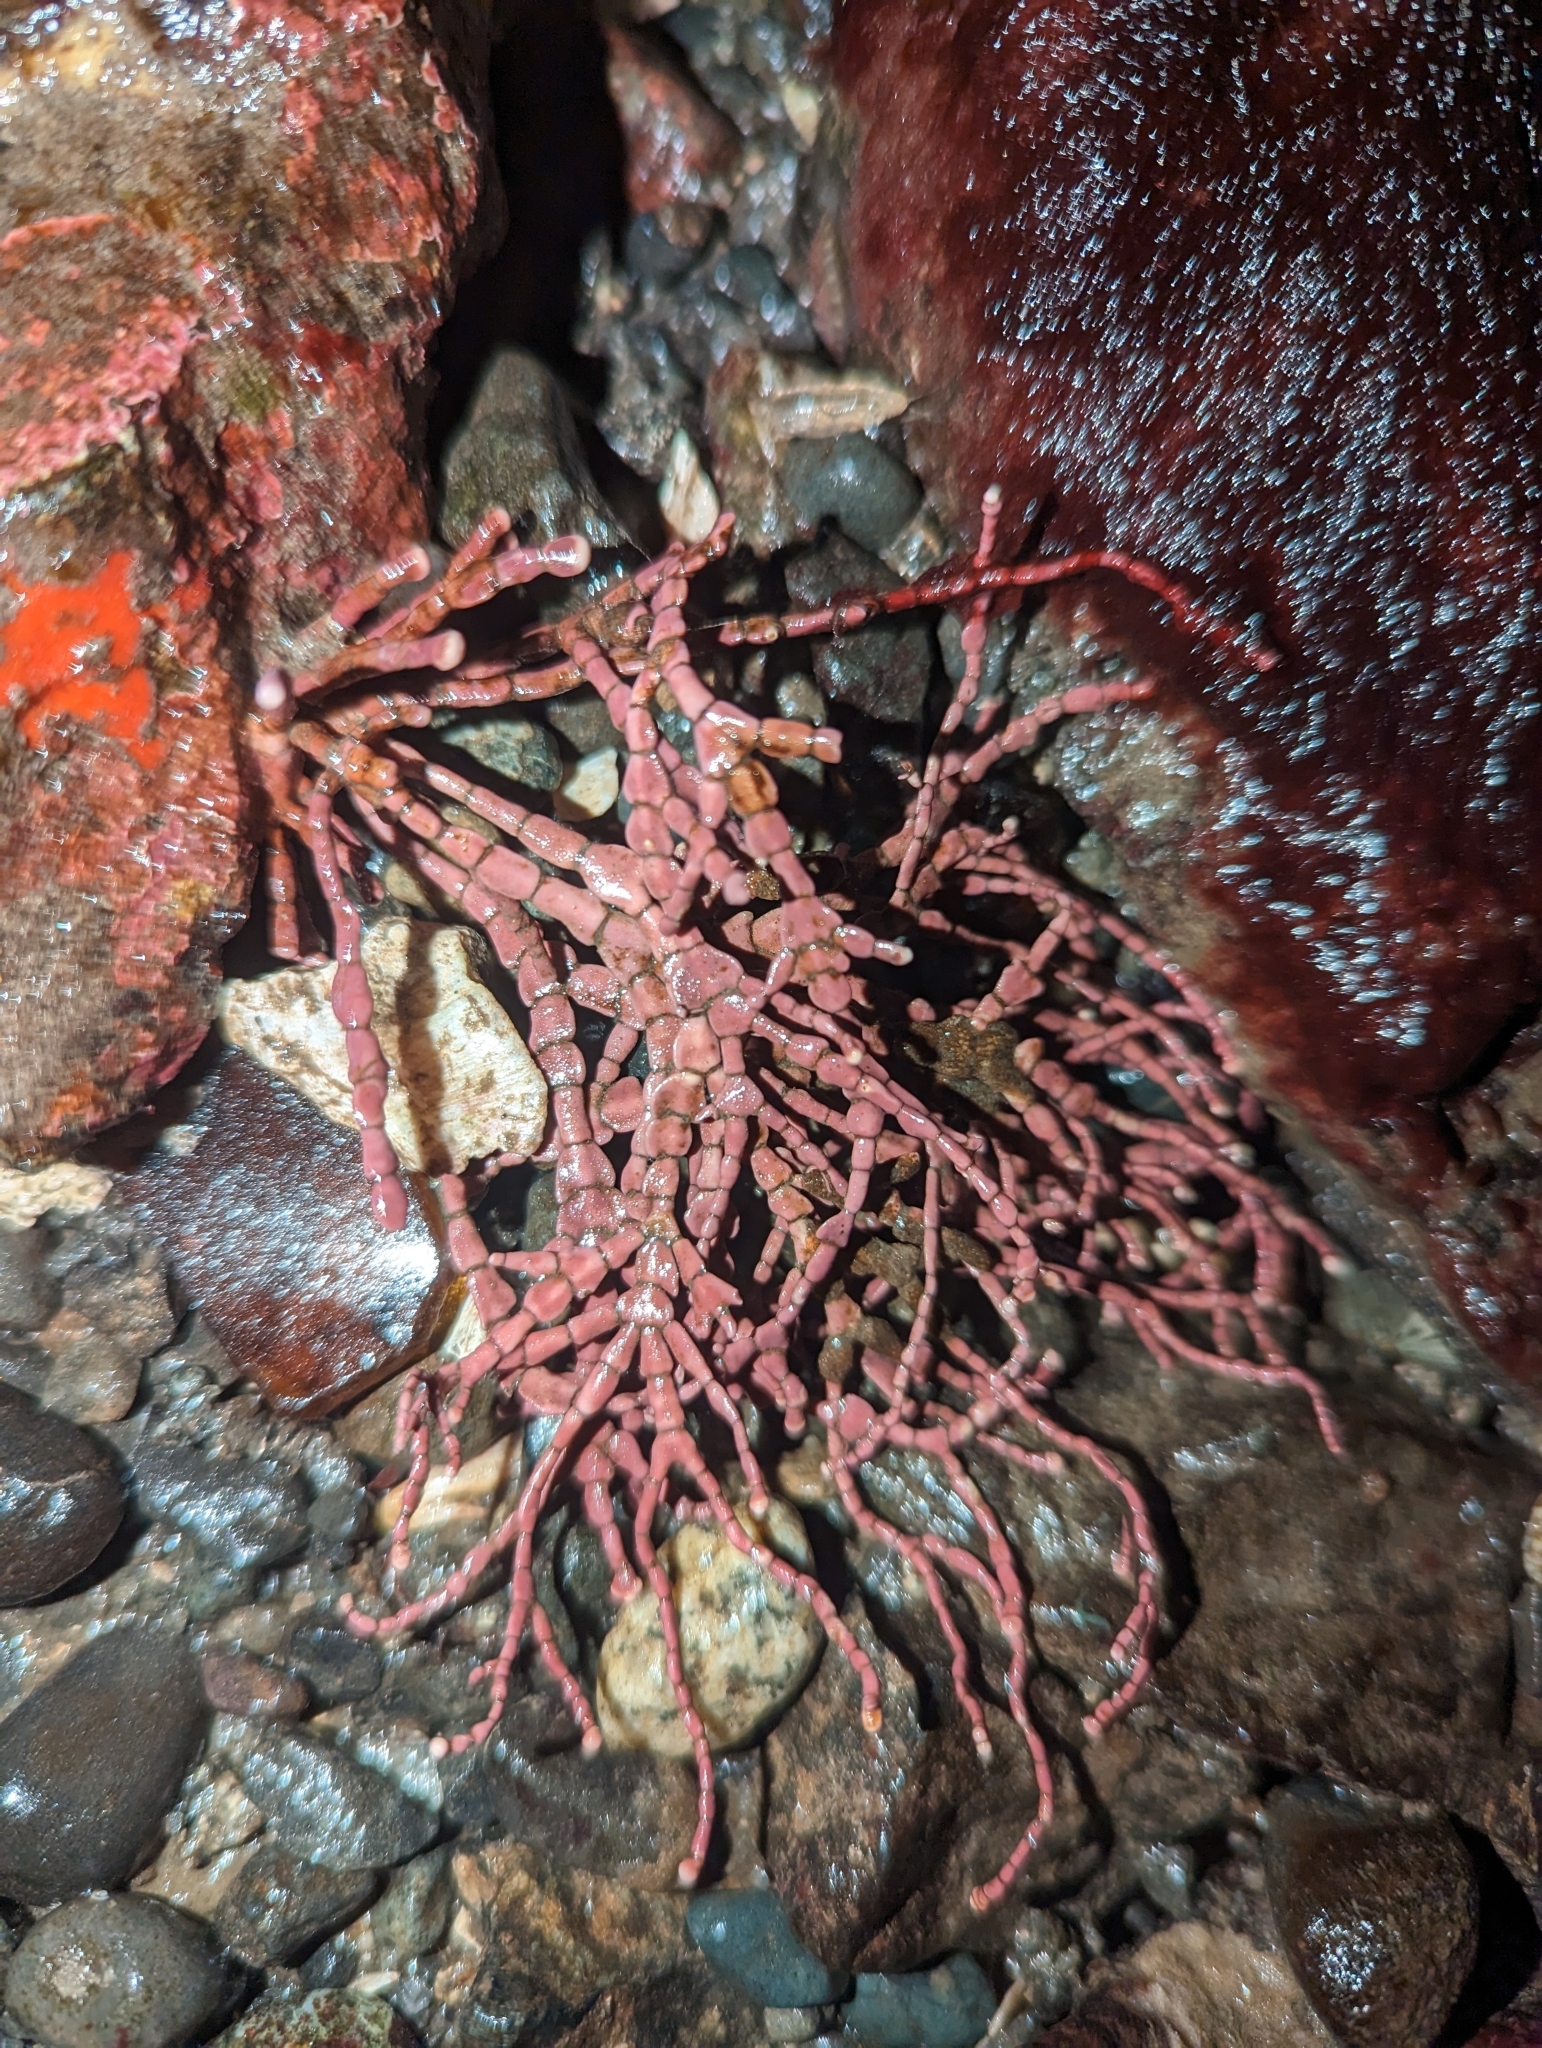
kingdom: Plantae
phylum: Rhodophyta
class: Florideophyceae
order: Corallinales
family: Corallinaceae
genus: Calliarthron
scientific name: Calliarthron tuberculosum
